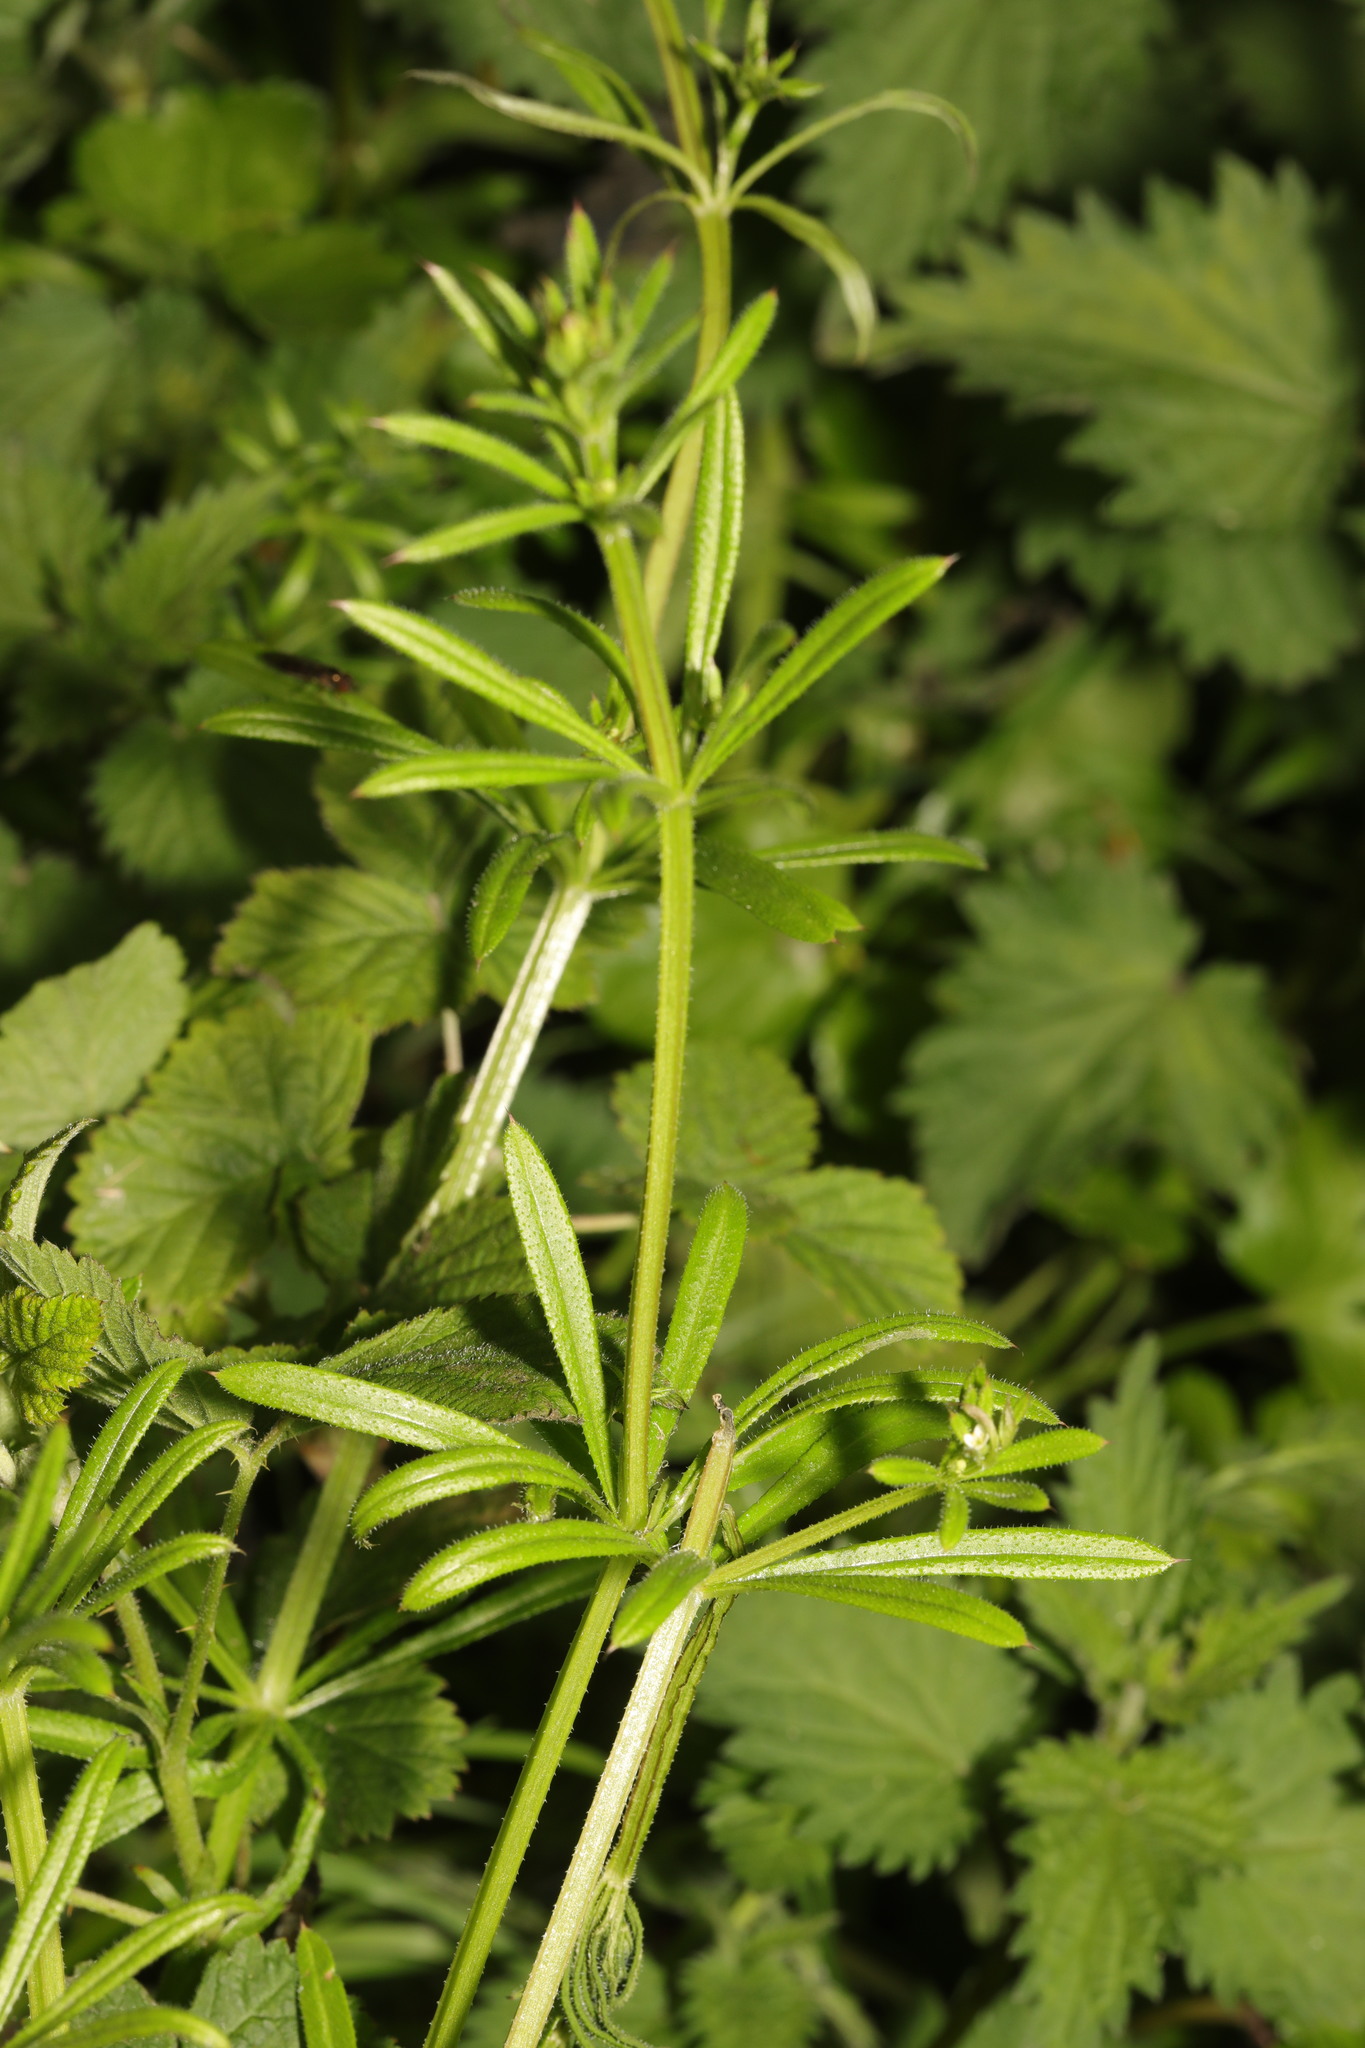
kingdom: Plantae
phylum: Tracheophyta
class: Magnoliopsida
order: Gentianales
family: Rubiaceae
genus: Galium
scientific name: Galium aparine
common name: Cleavers
